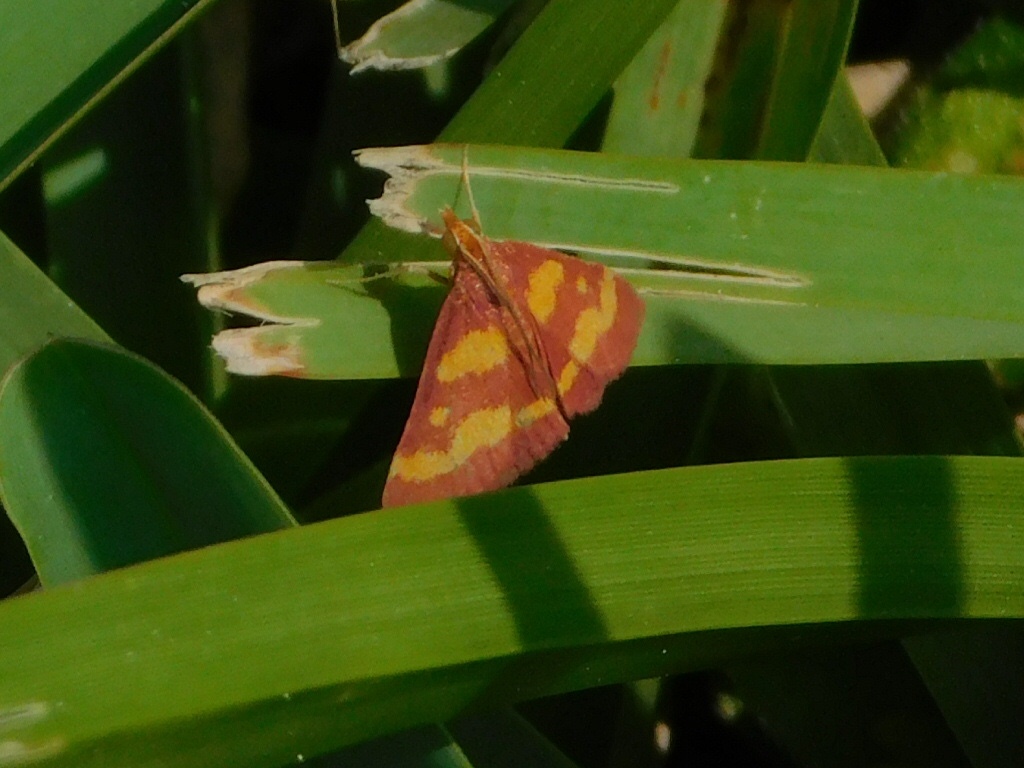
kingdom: Animalia
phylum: Arthropoda
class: Insecta
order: Lepidoptera
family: Crambidae
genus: Pyrausta
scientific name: Pyrausta tyralis
